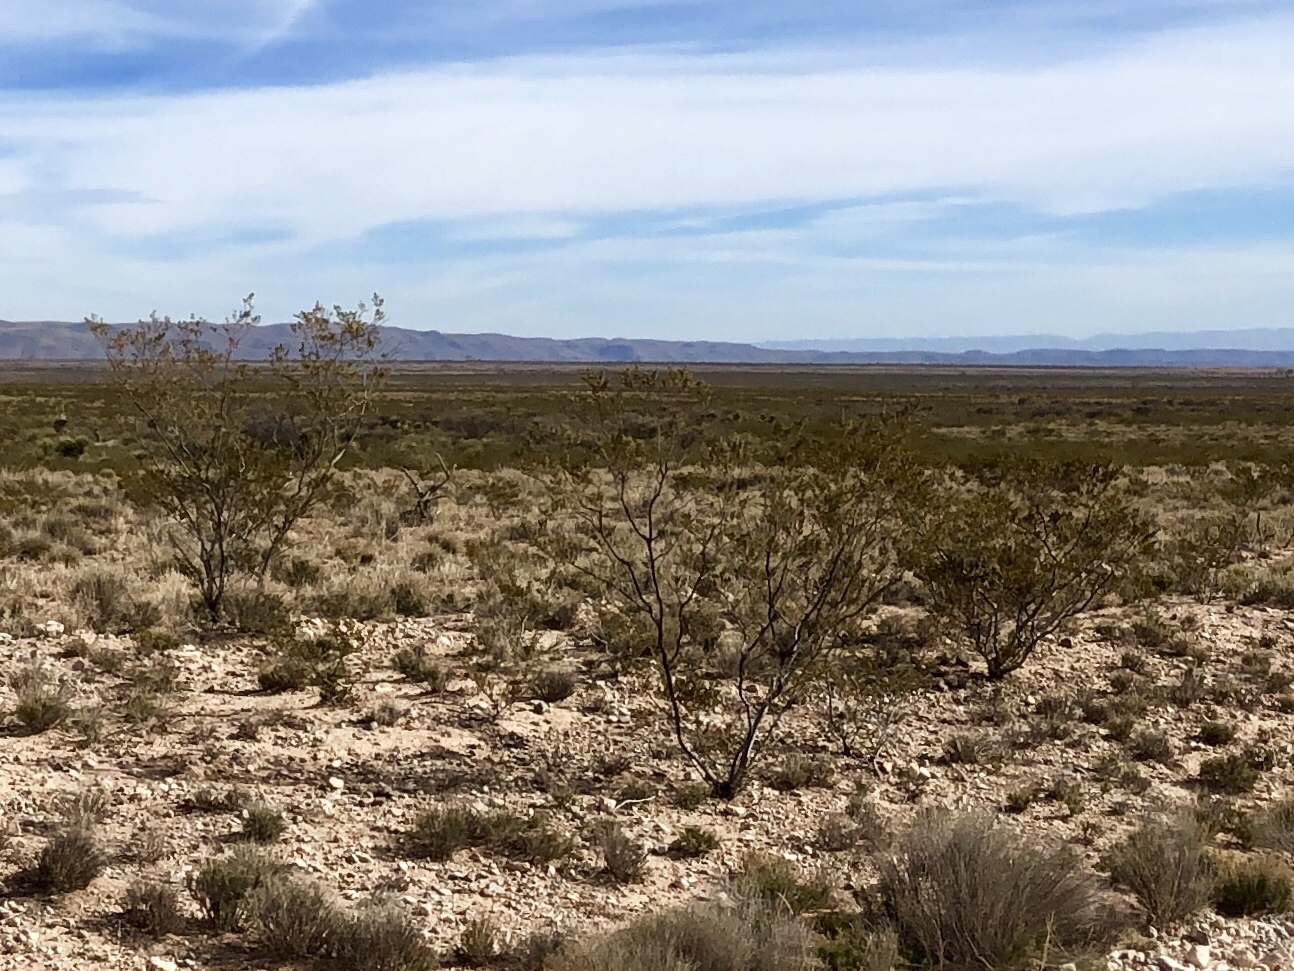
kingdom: Plantae
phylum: Tracheophyta
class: Magnoliopsida
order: Zygophyllales
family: Zygophyllaceae
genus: Larrea
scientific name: Larrea tridentata
